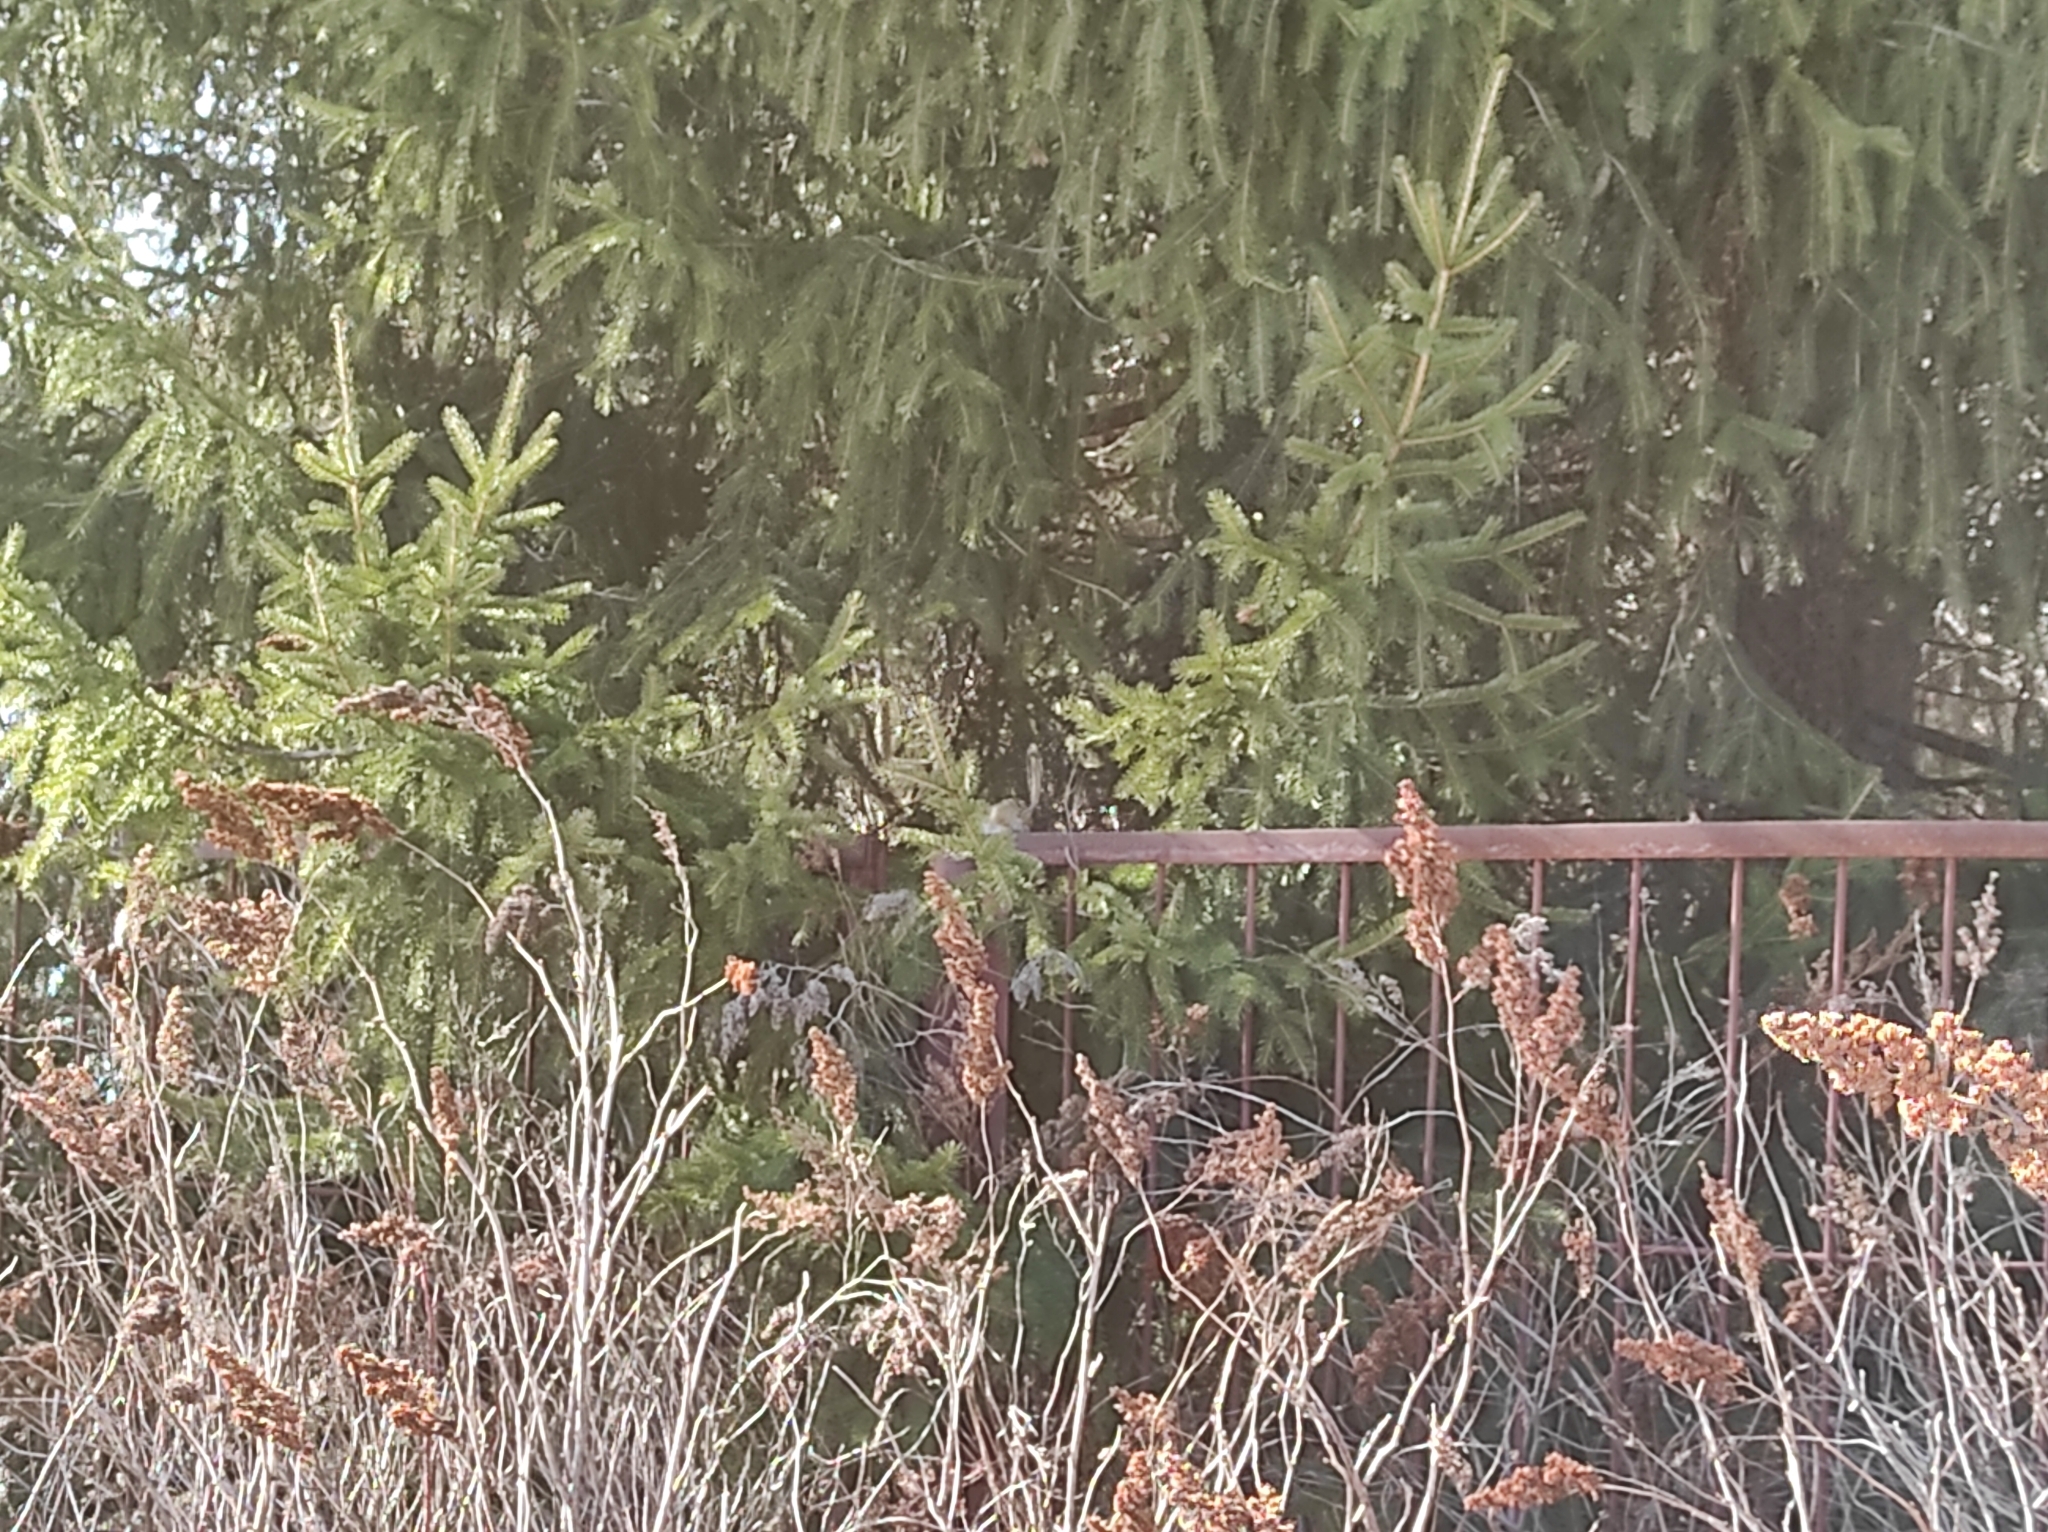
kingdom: Animalia
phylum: Chordata
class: Mammalia
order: Rodentia
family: Sciuridae
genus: Tamias
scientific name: Tamias sibiricus
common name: Siberian chipmunk
